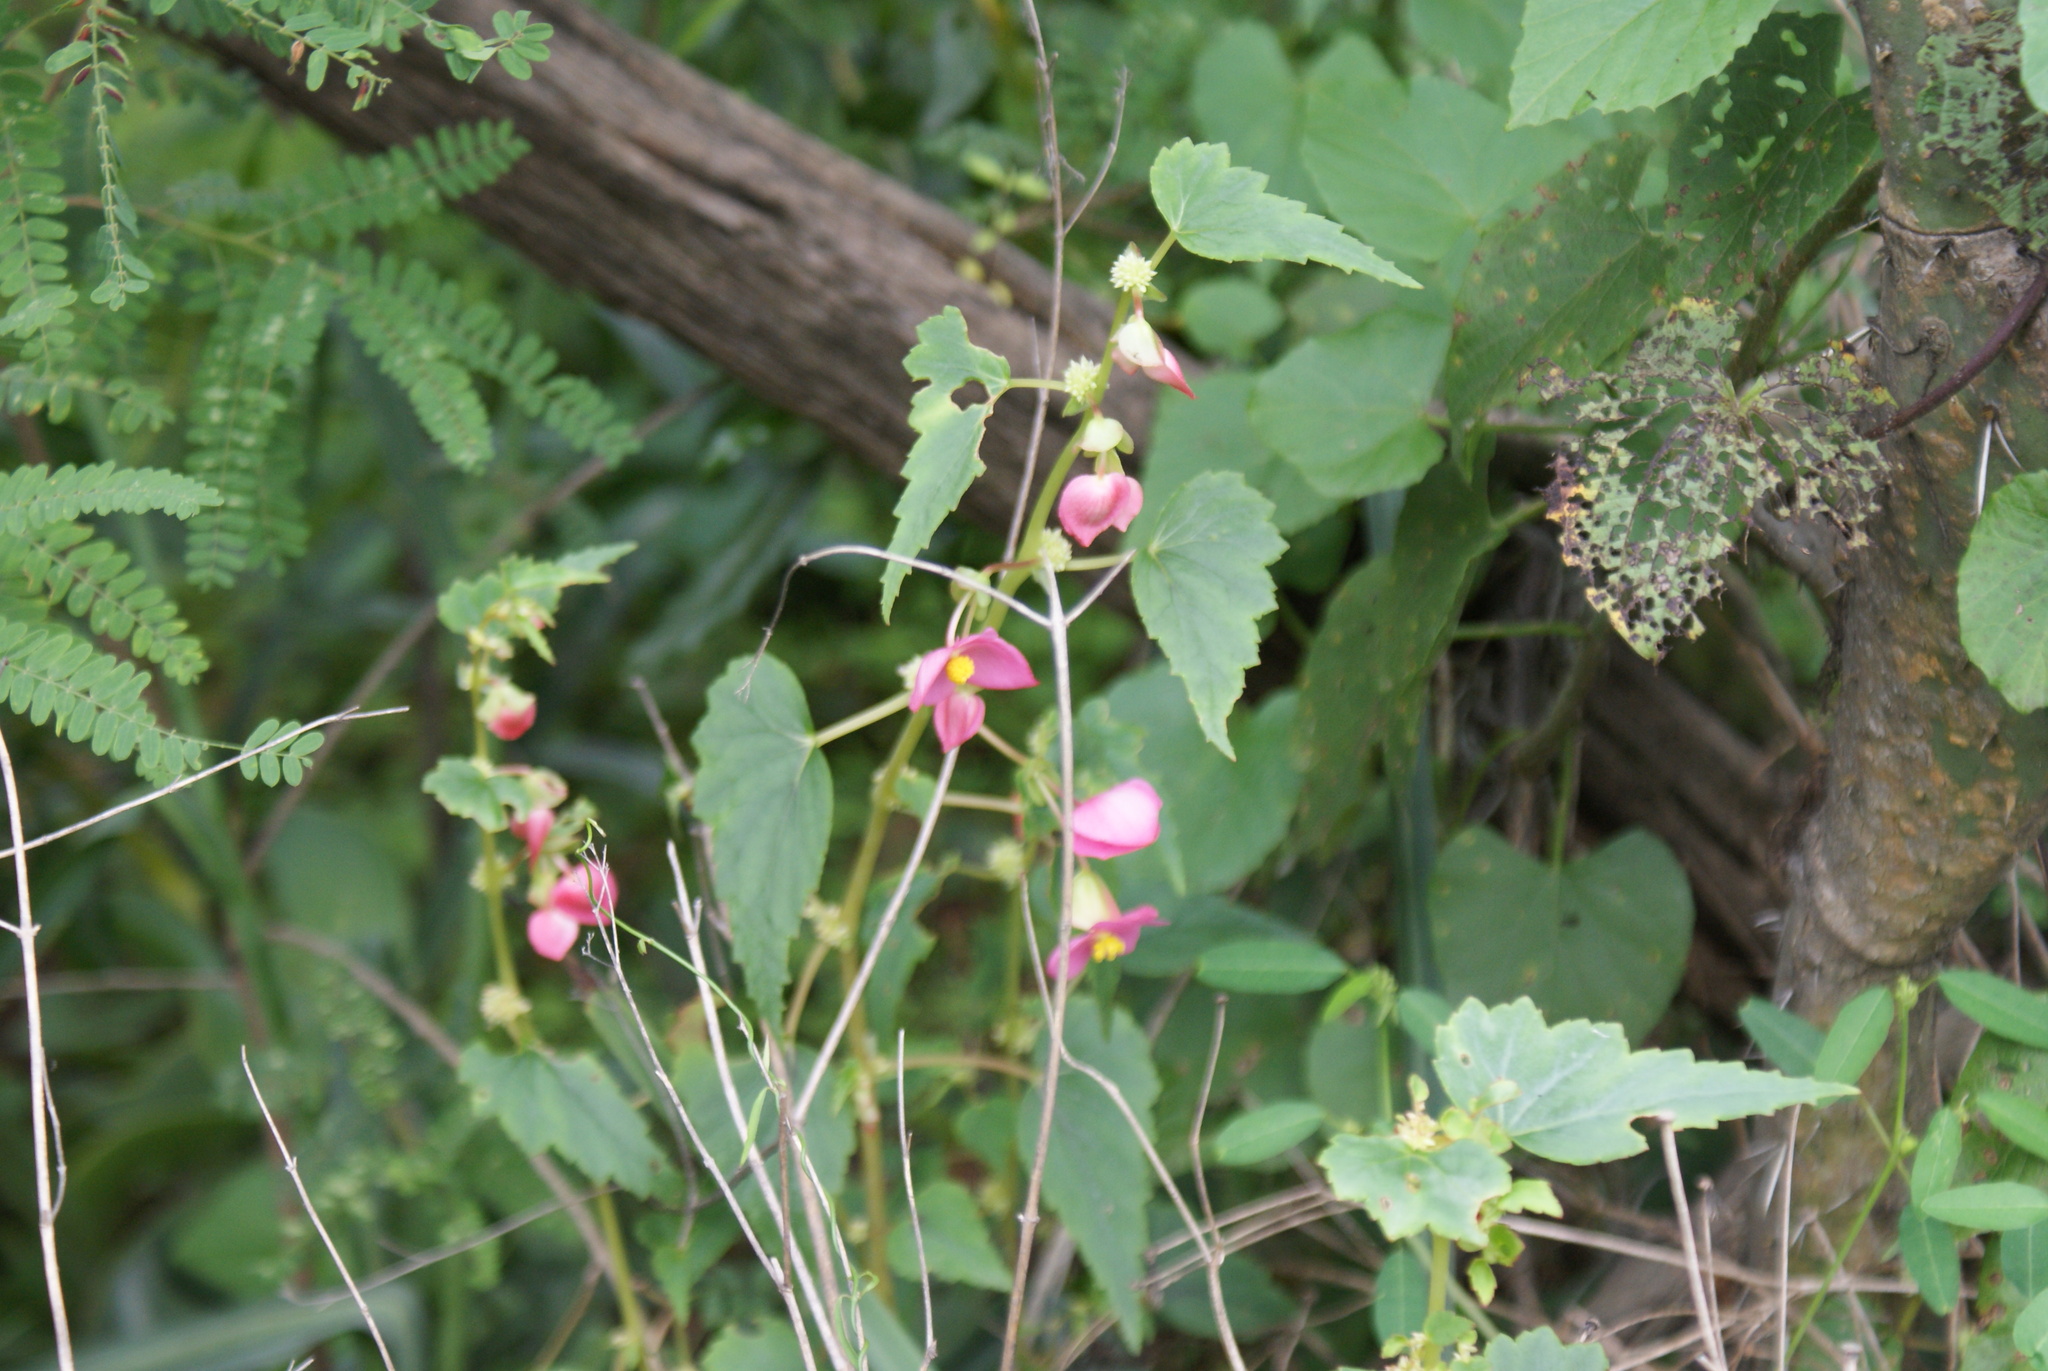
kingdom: Plantae
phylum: Tracheophyta
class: Magnoliopsida
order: Cucurbitales
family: Begoniaceae
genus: Begonia
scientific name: Begonia gracilis
